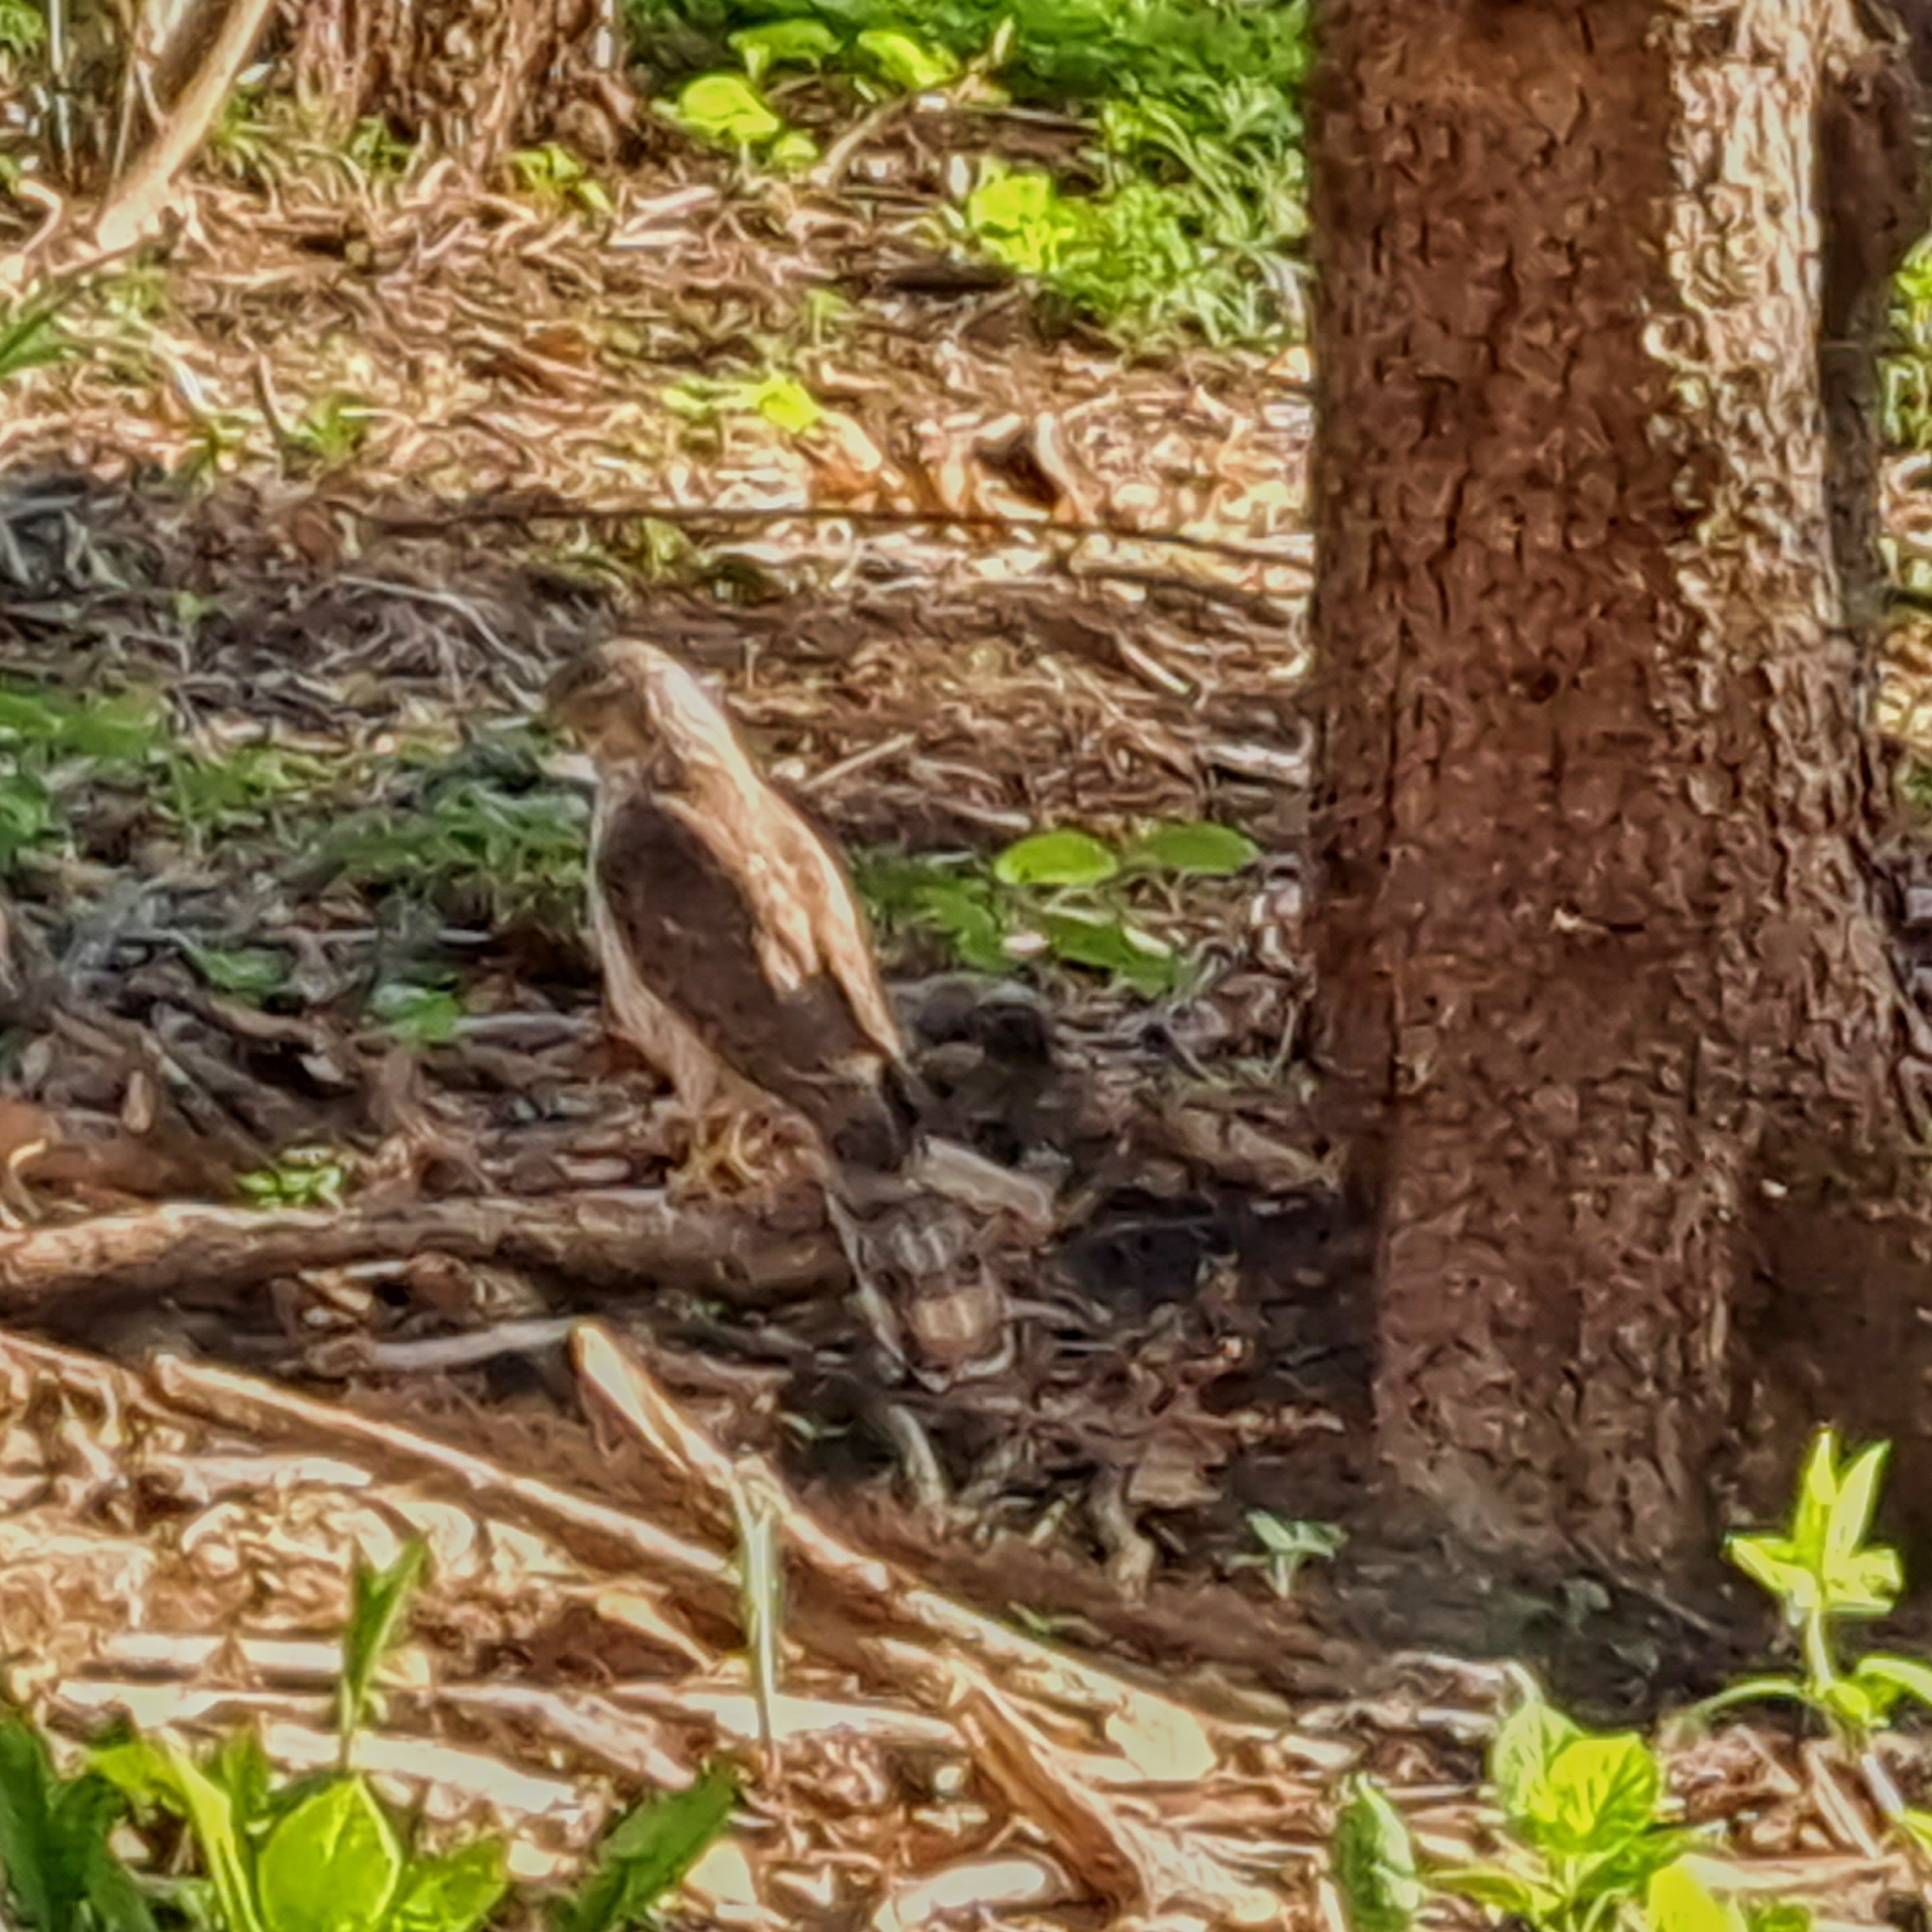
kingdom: Animalia
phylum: Chordata
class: Aves
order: Accipitriformes
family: Accipitridae
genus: Accipiter
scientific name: Accipiter cooperii
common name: Cooper's hawk
